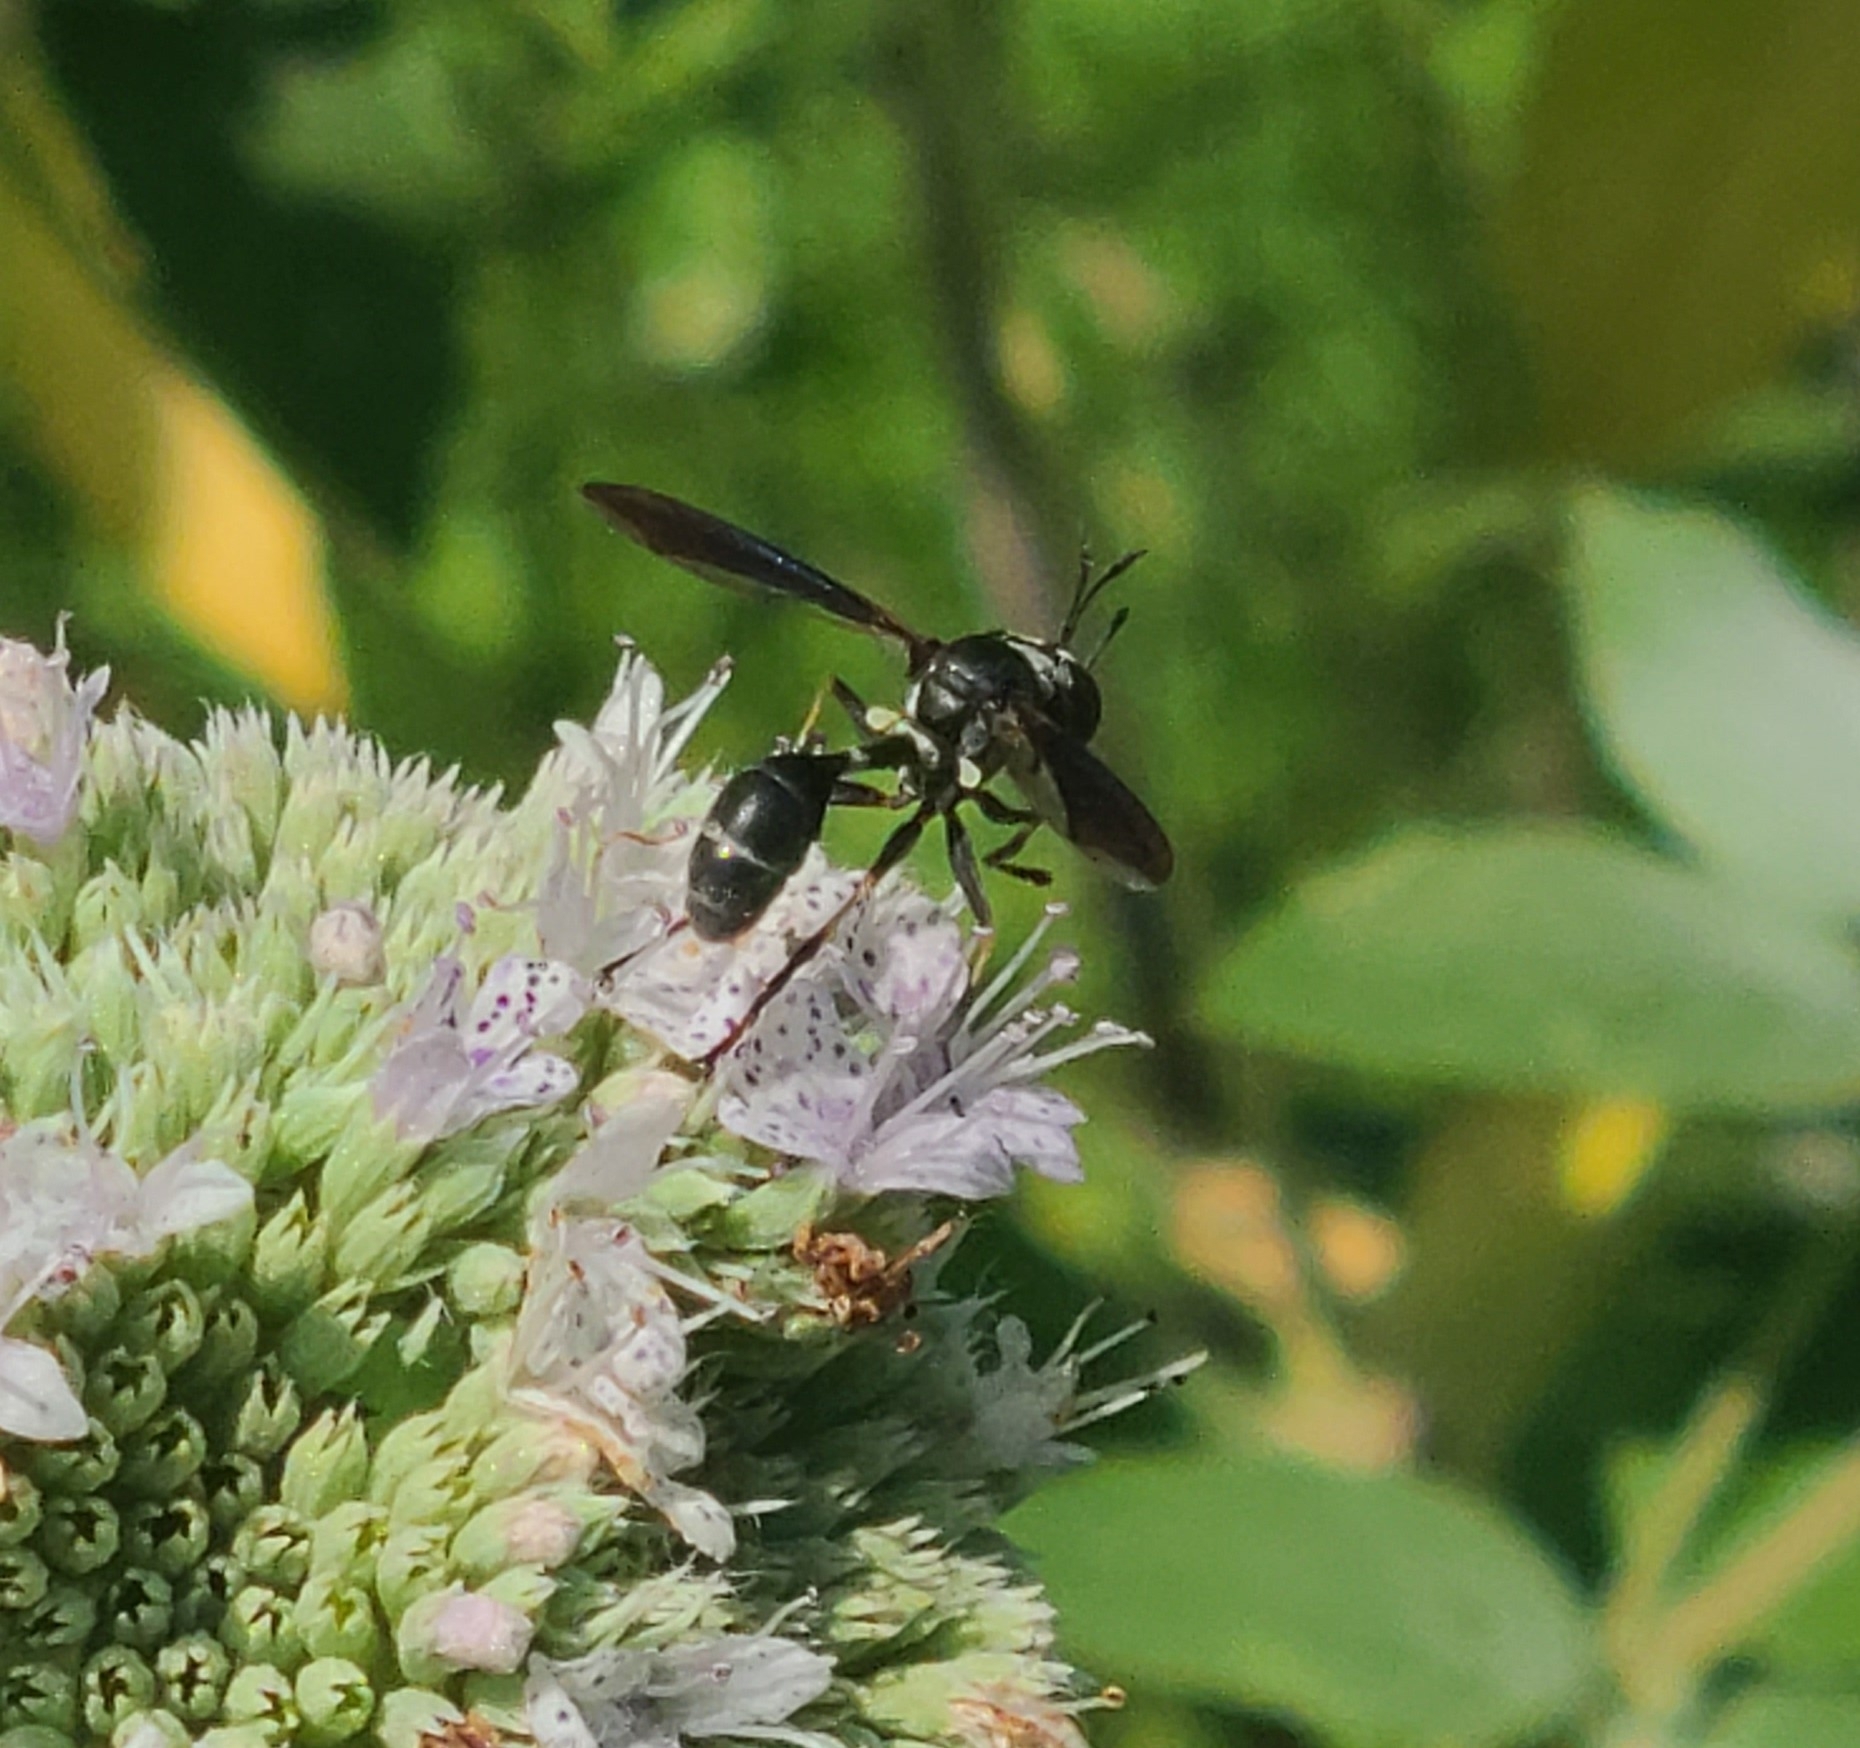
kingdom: Animalia
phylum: Arthropoda
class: Insecta
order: Diptera
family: Conopidae
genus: Physocephala
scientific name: Physocephala tibialis
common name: Common eastern physocephala
